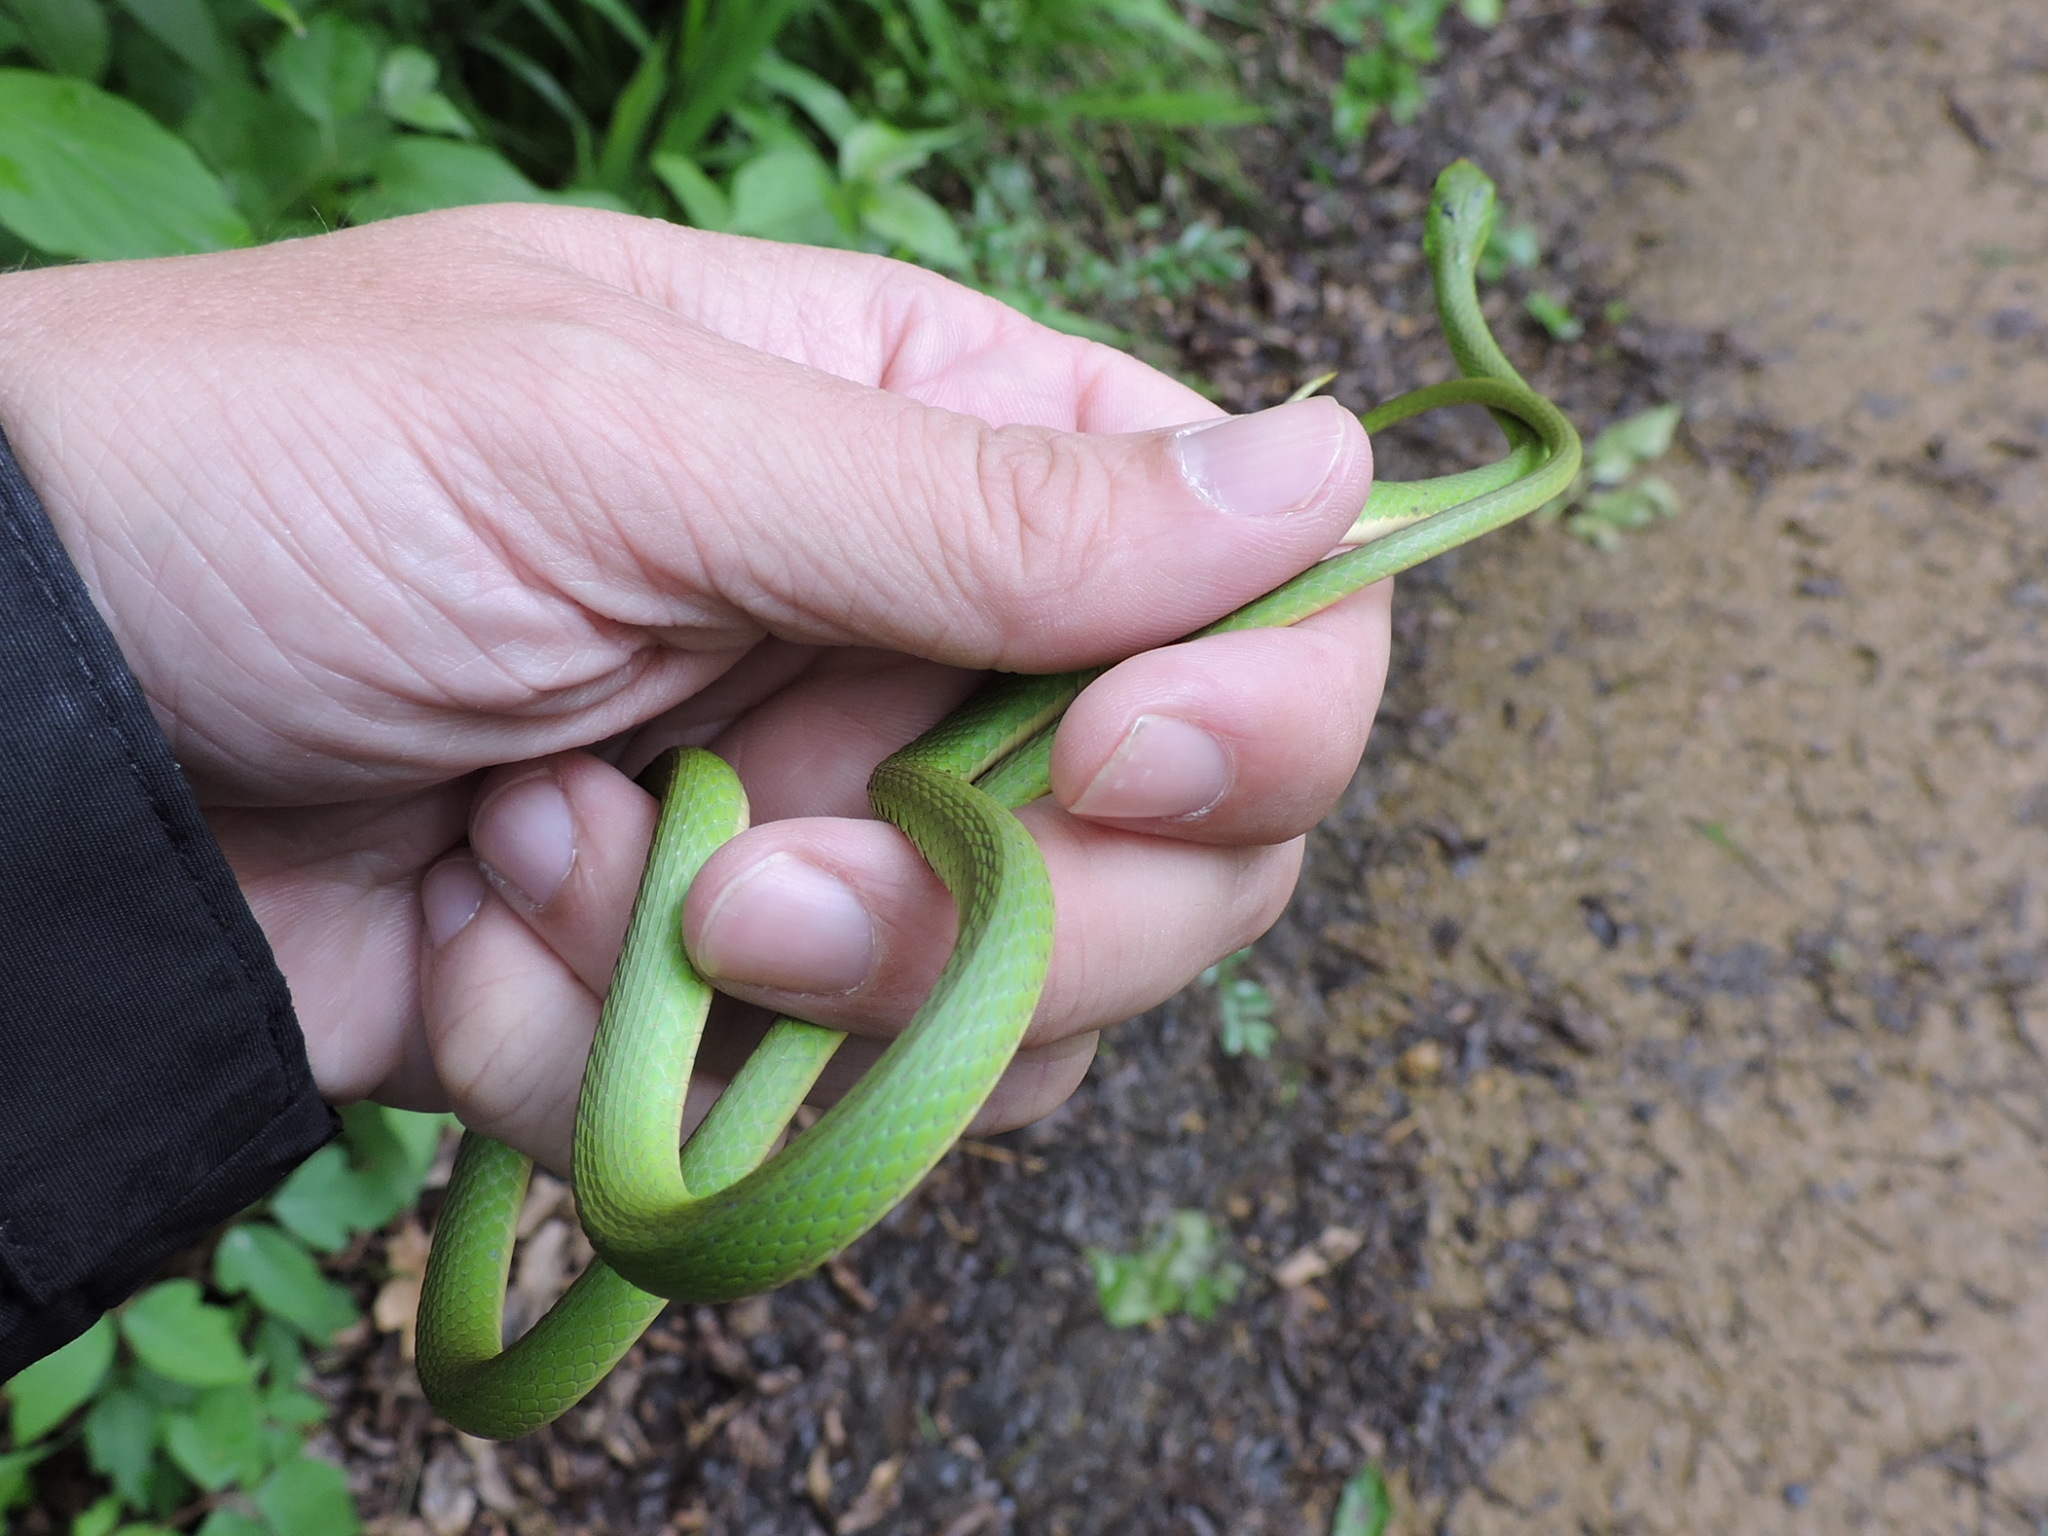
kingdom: Animalia
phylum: Chordata
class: Squamata
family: Colubridae
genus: Opheodrys
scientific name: Opheodrys aestivus
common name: Rough greensnake
